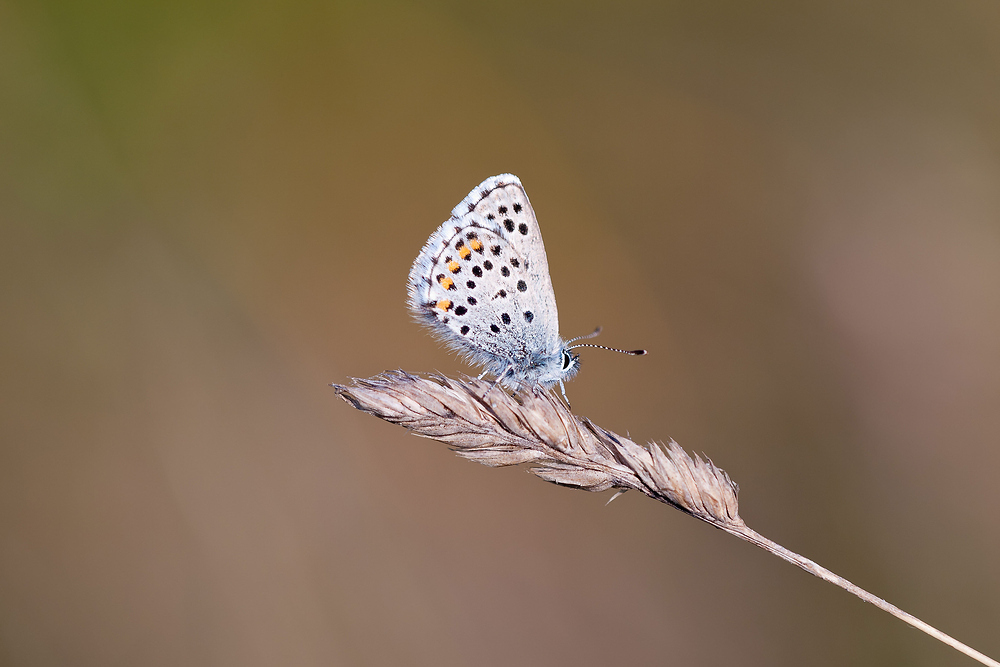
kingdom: Animalia
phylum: Arthropoda
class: Insecta
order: Lepidoptera
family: Lycaenidae
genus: Pseudophilotes
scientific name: Pseudophilotes baton
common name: Baton blue
